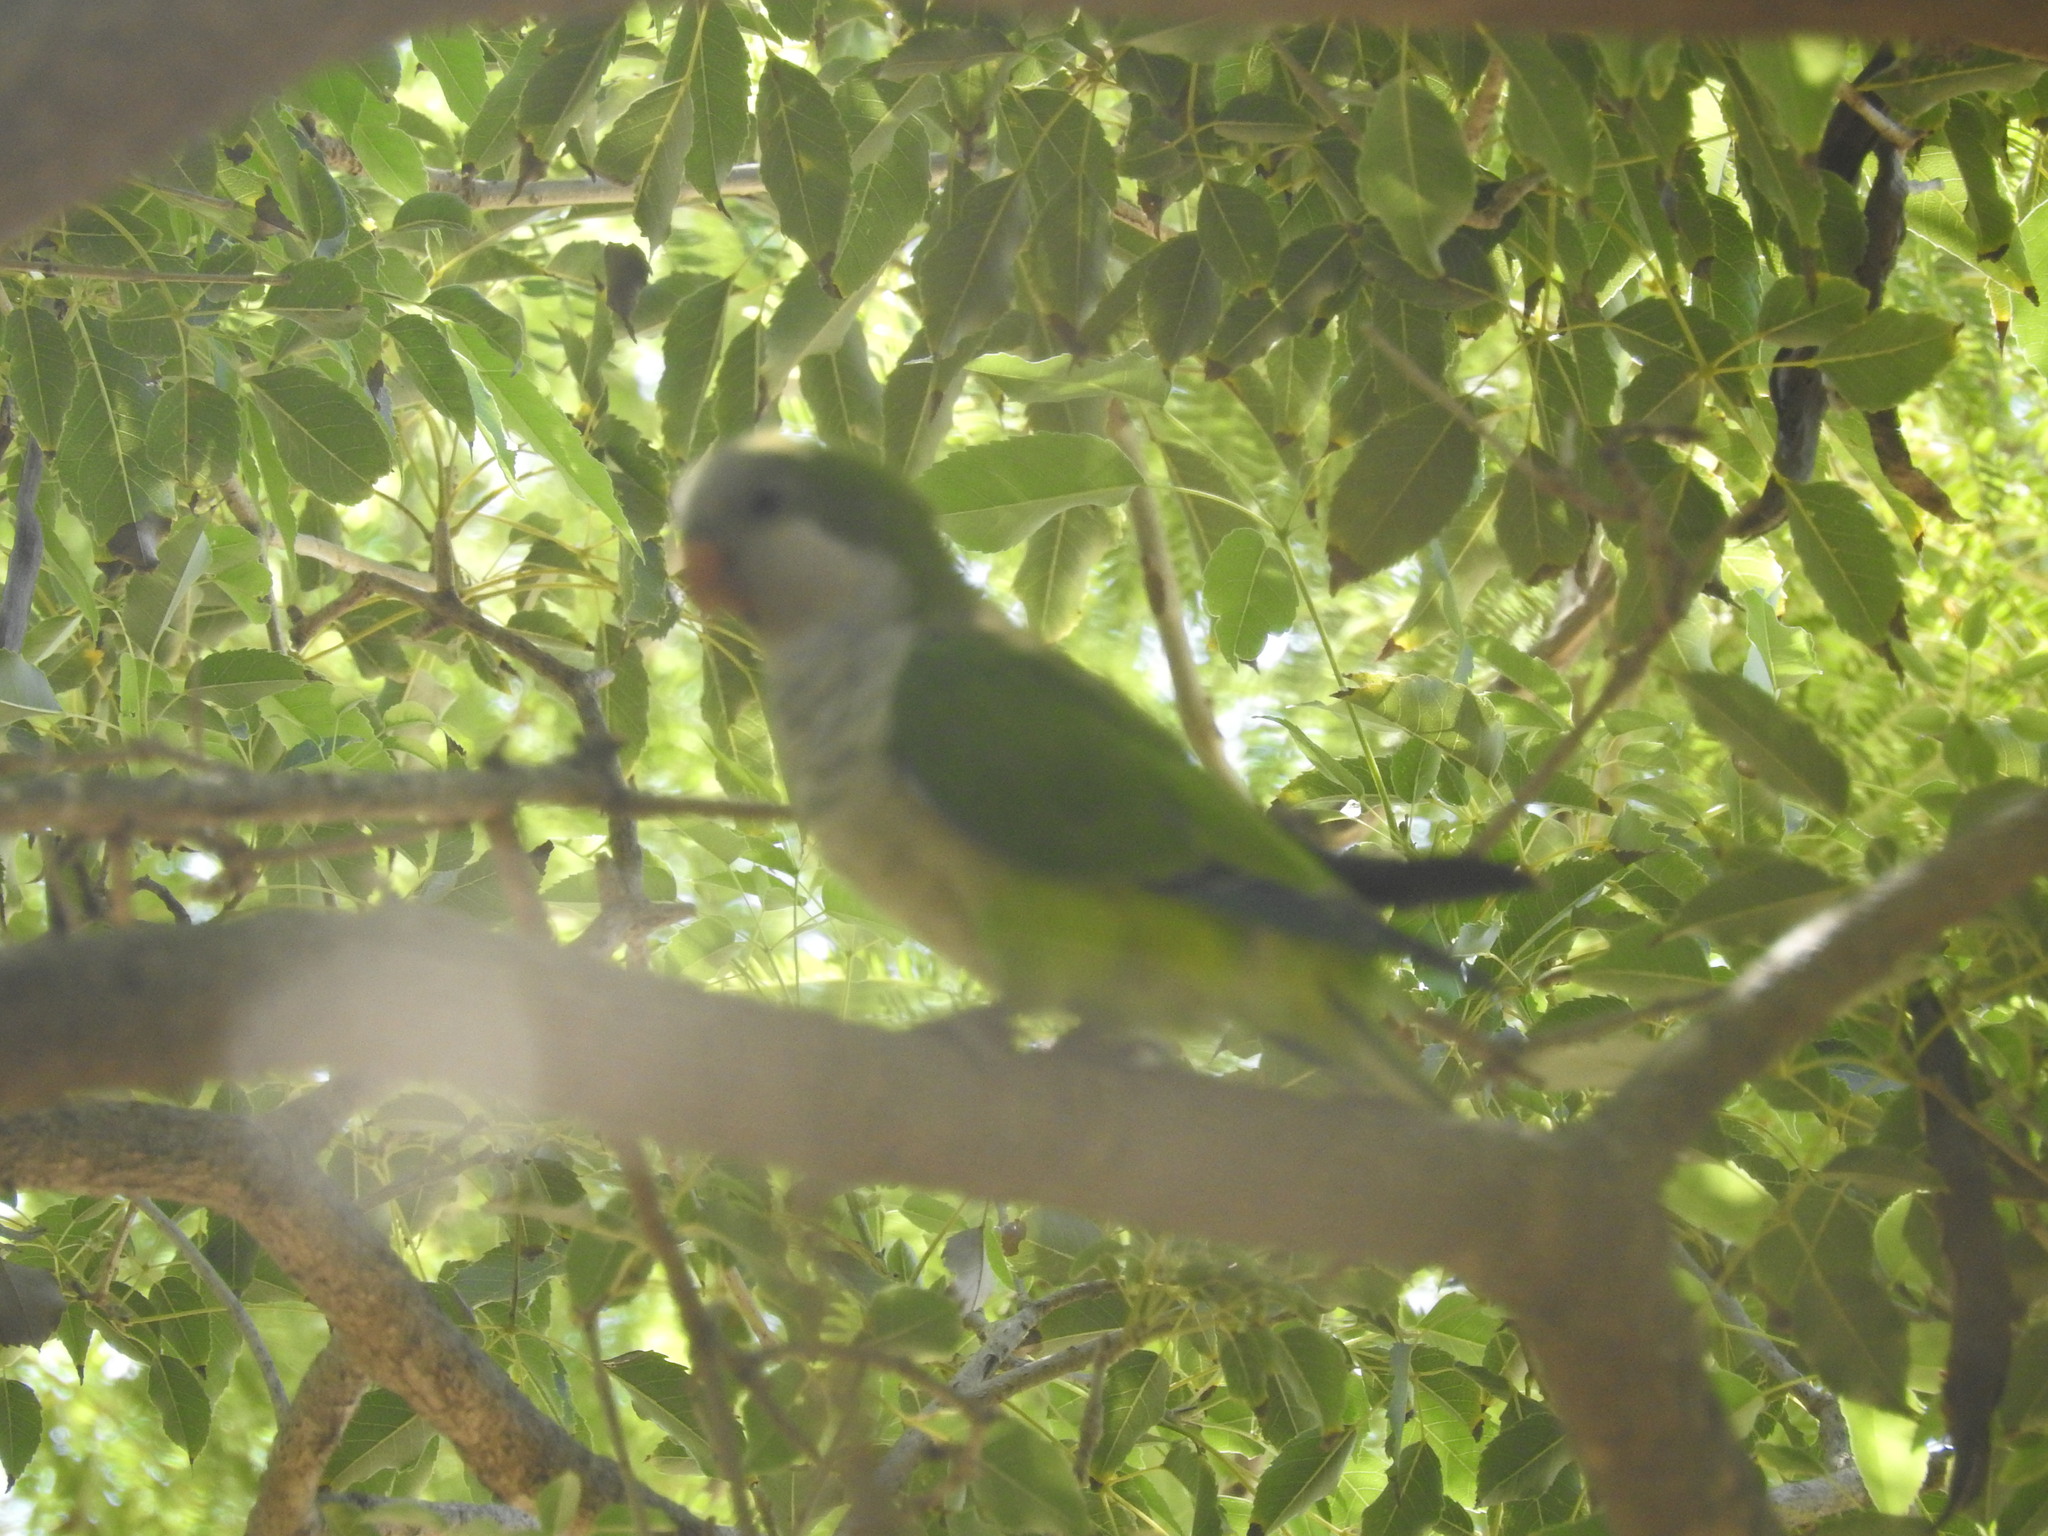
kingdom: Animalia
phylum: Chordata
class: Aves
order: Psittaciformes
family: Psittacidae
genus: Myiopsitta
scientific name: Myiopsitta monachus
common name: Monk parakeet
